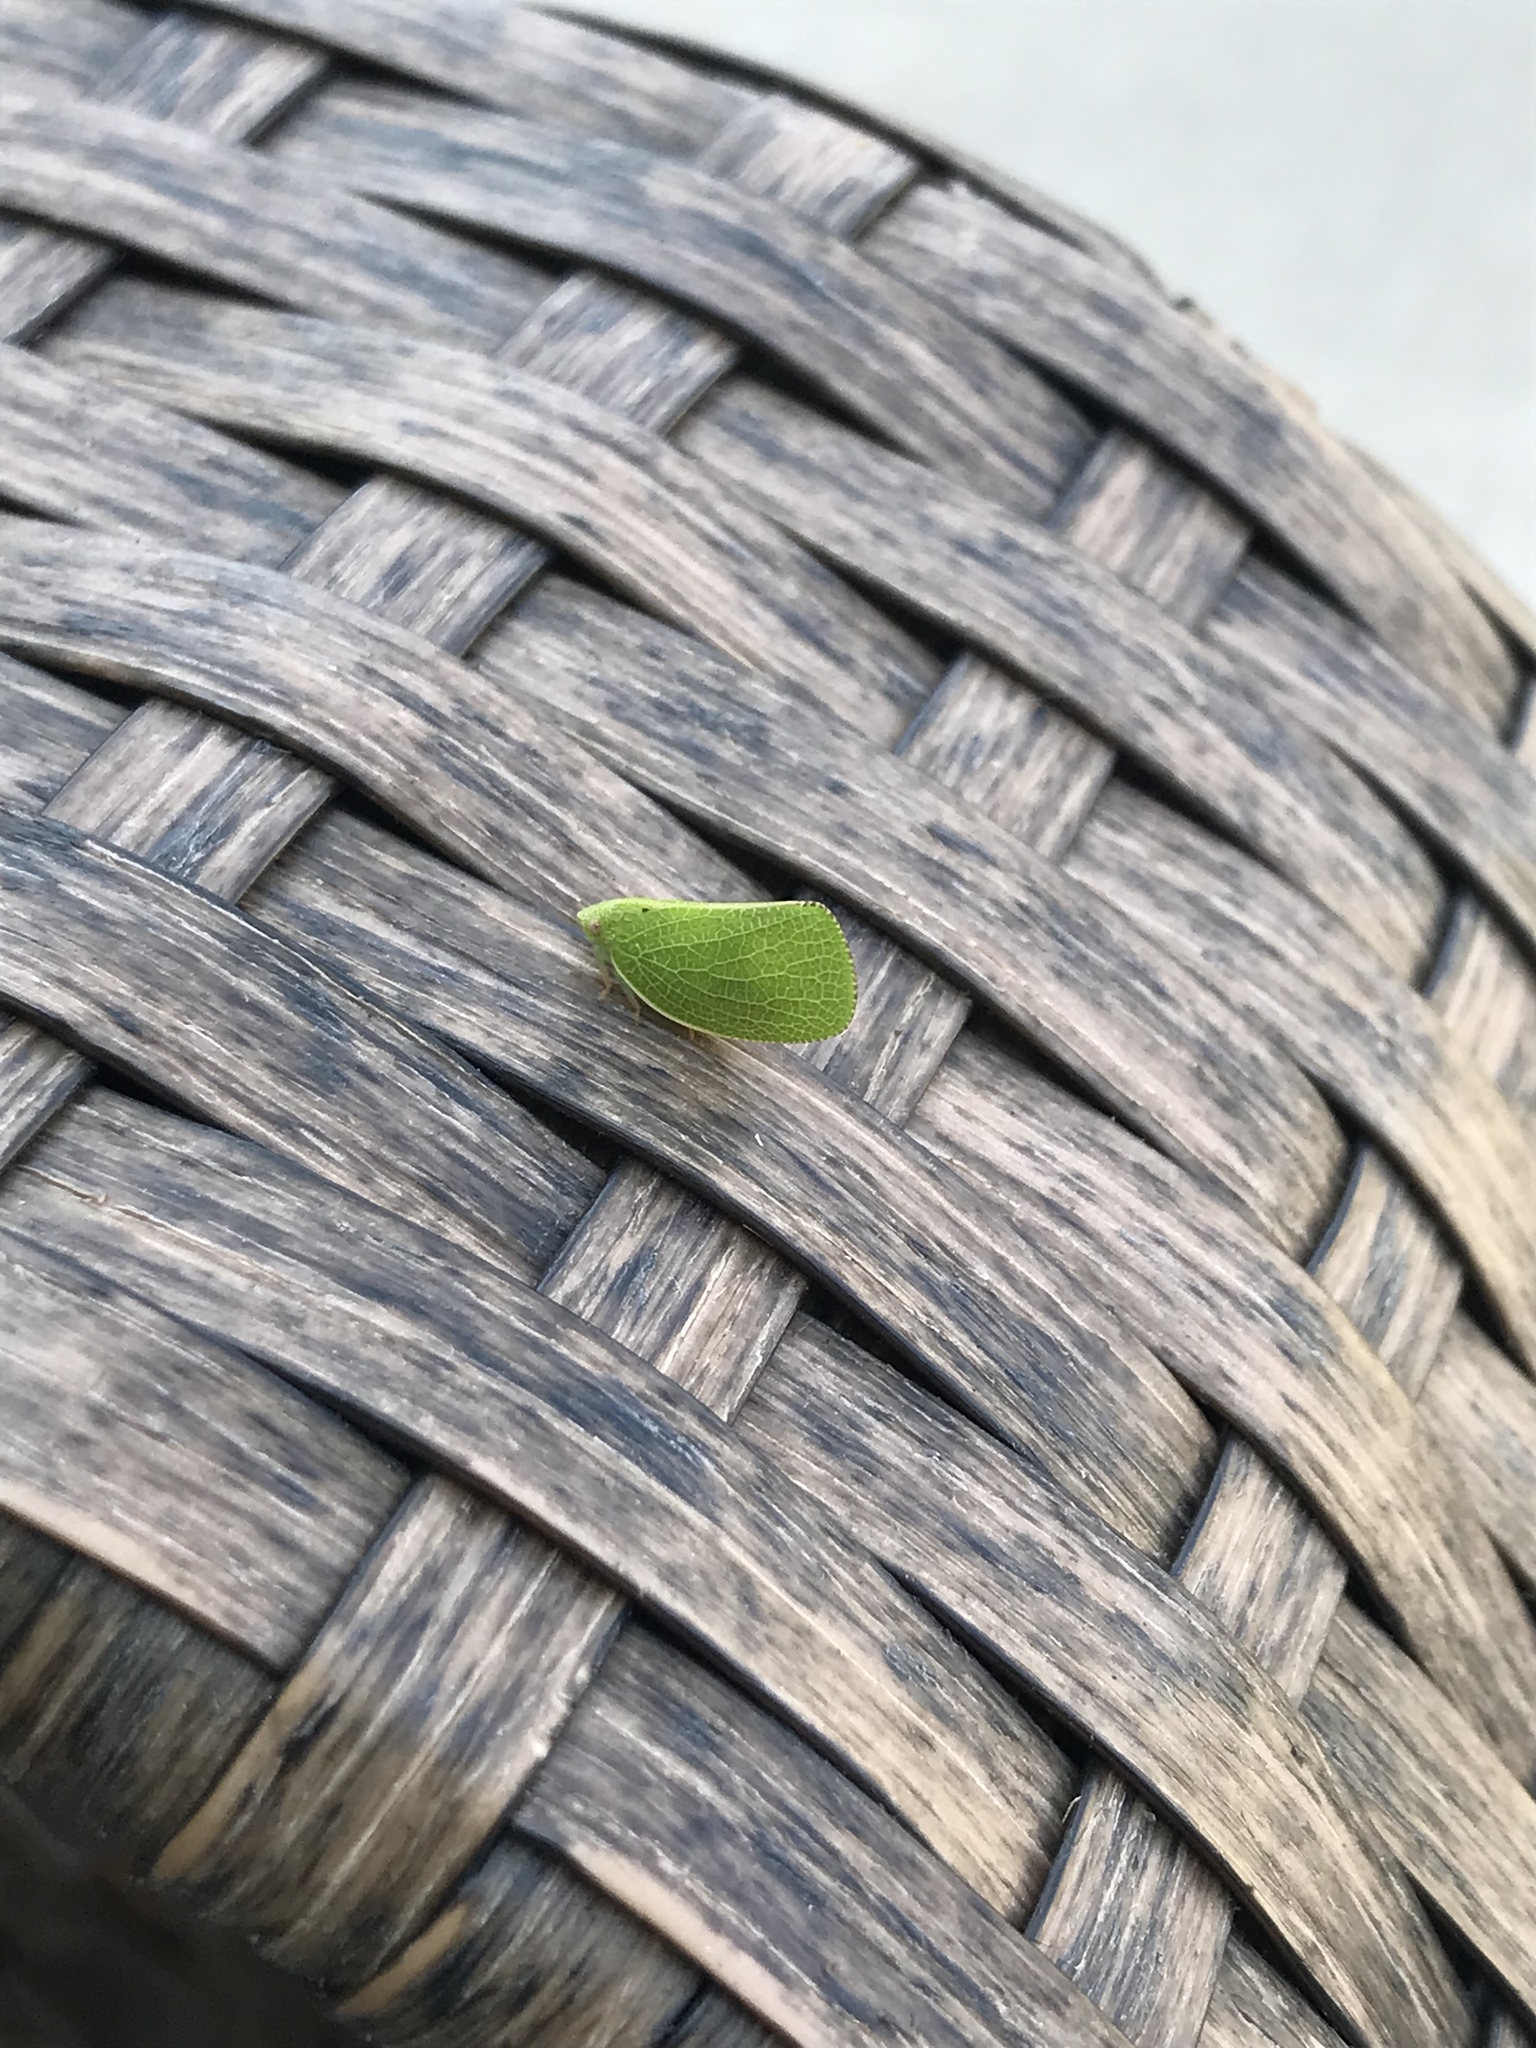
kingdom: Animalia
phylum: Arthropoda
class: Insecta
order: Hemiptera
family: Acanaloniidae
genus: Acanalonia
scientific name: Acanalonia conica
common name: Green cone-headed planthopper
